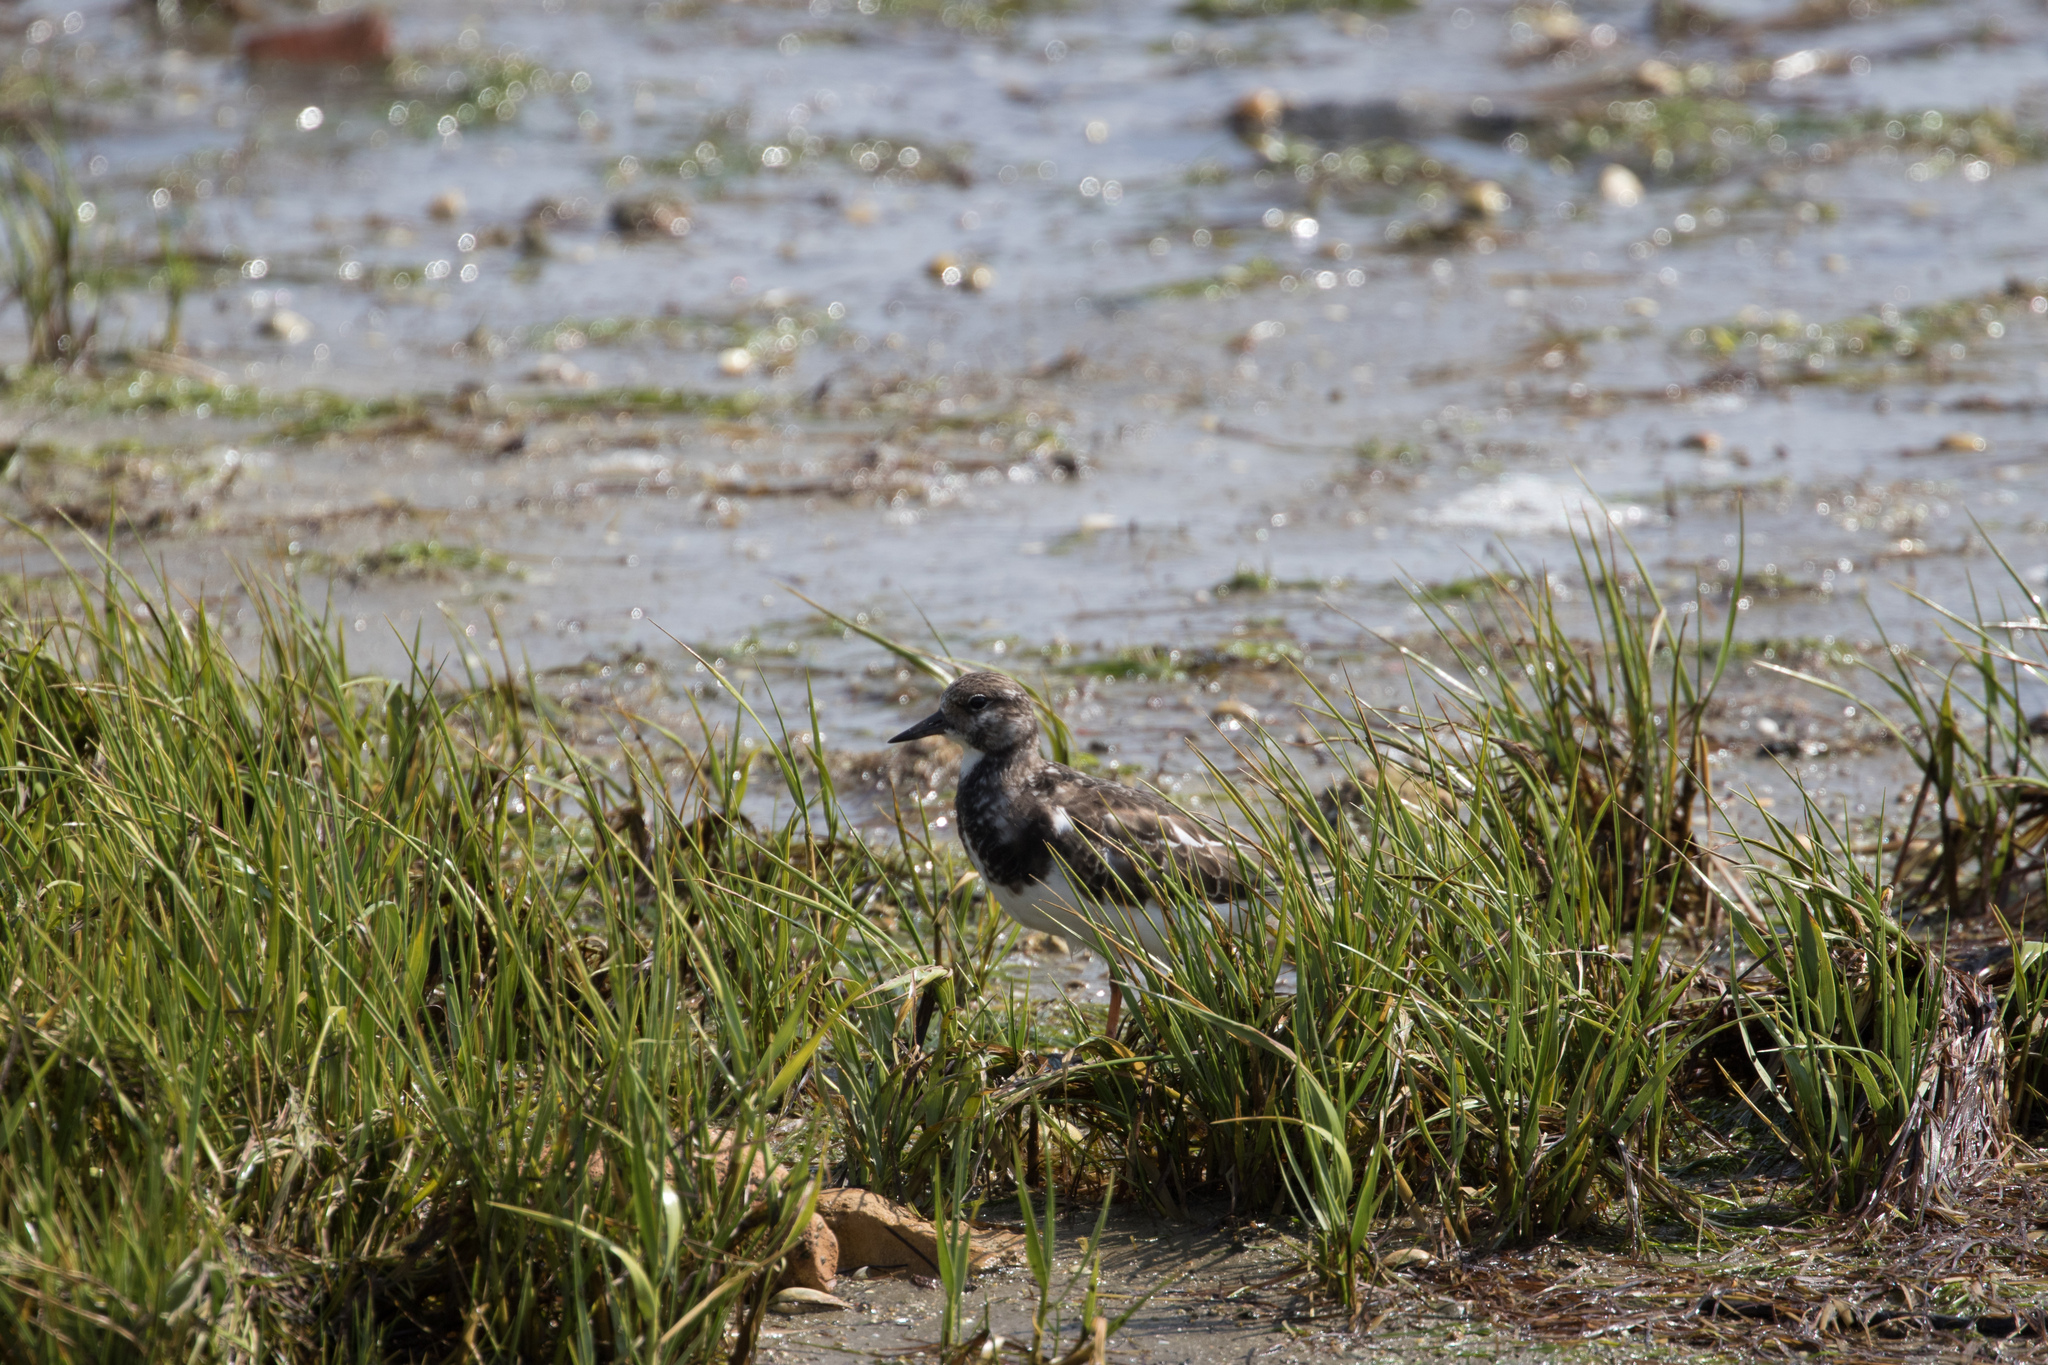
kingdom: Animalia
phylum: Chordata
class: Aves
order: Charadriiformes
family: Scolopacidae
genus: Arenaria
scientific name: Arenaria interpres
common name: Ruddy turnstone
